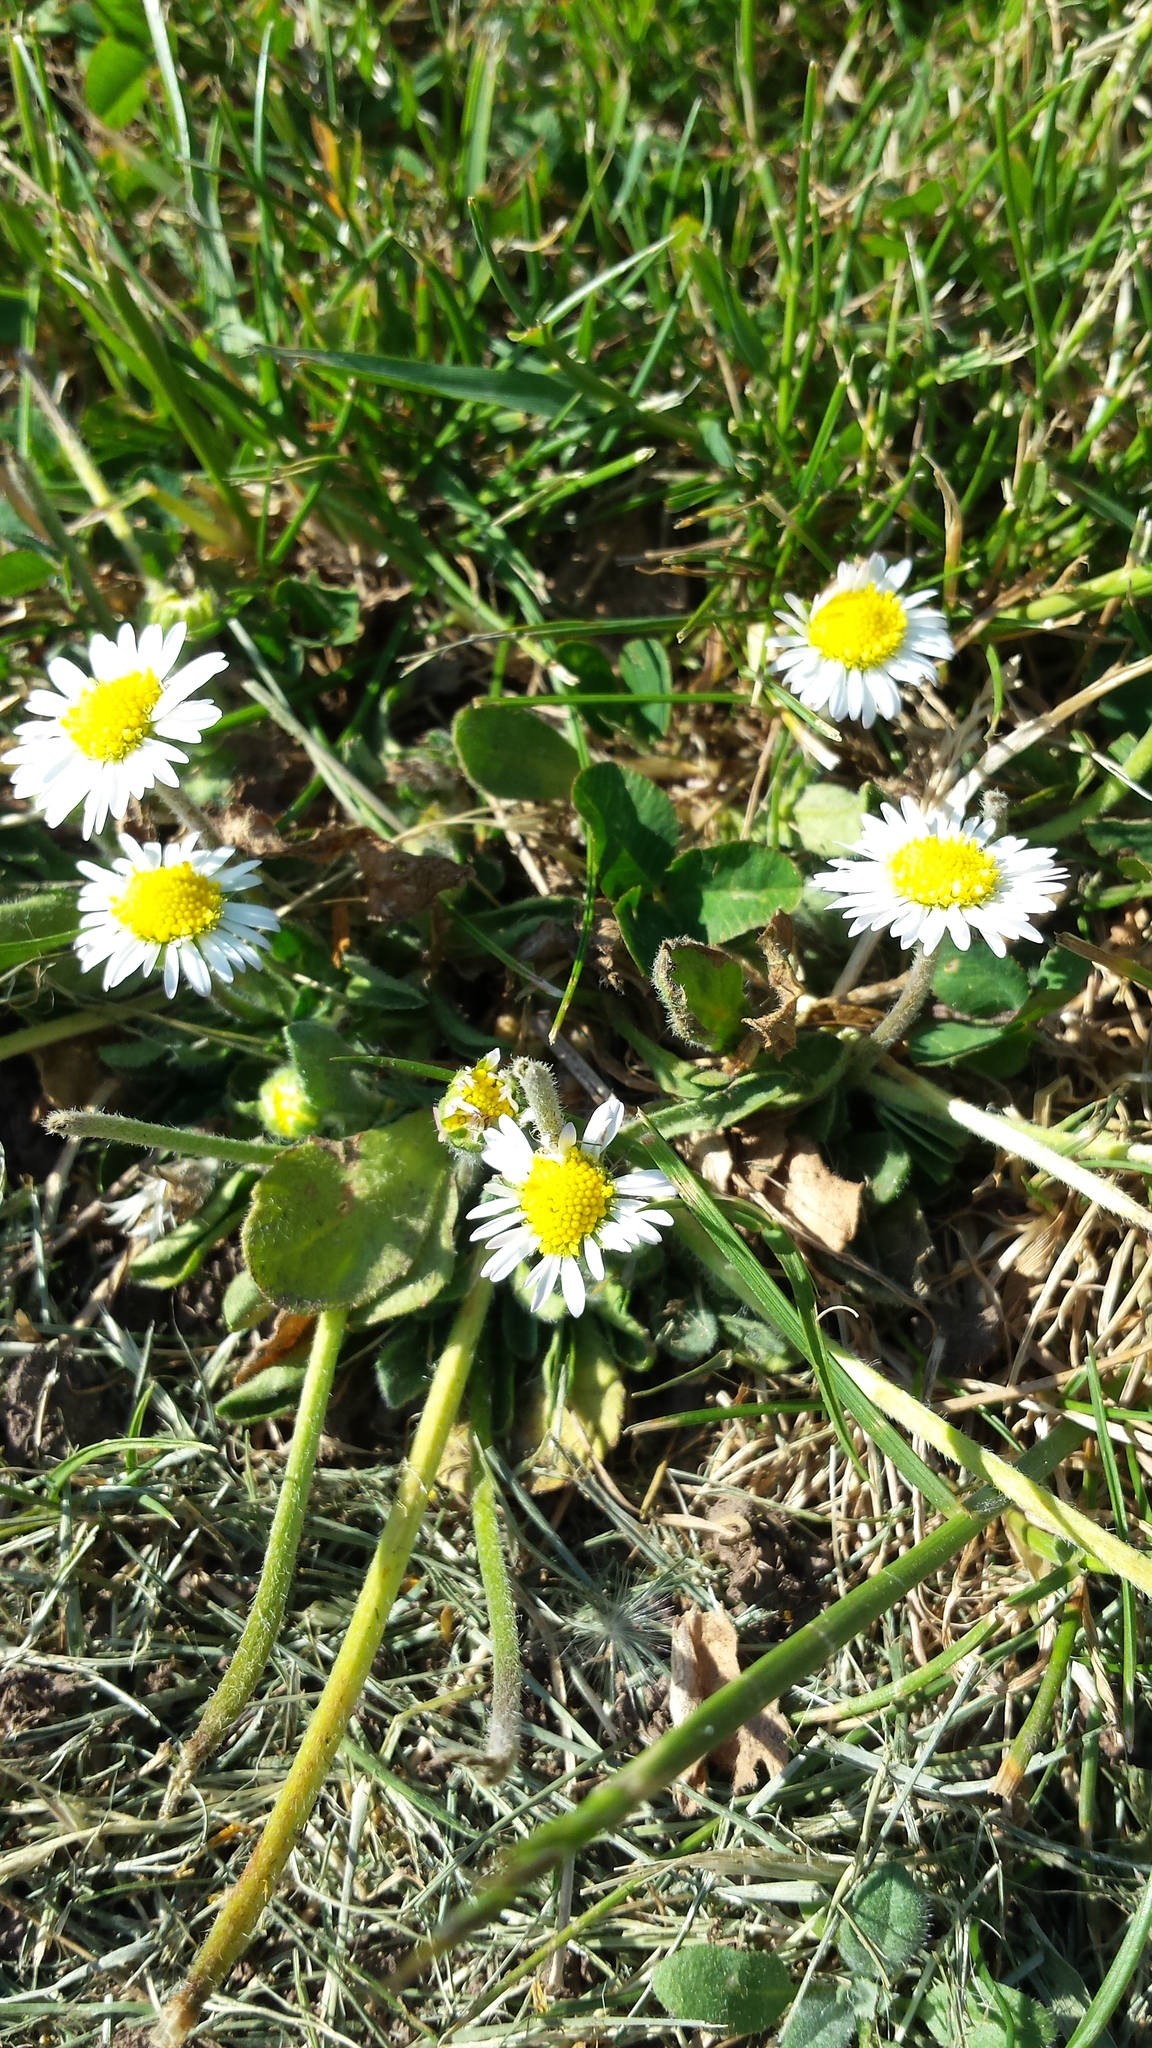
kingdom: Plantae
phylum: Tracheophyta
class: Magnoliopsida
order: Asterales
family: Asteraceae
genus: Bellis
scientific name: Bellis perennis
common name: Lawndaisy
